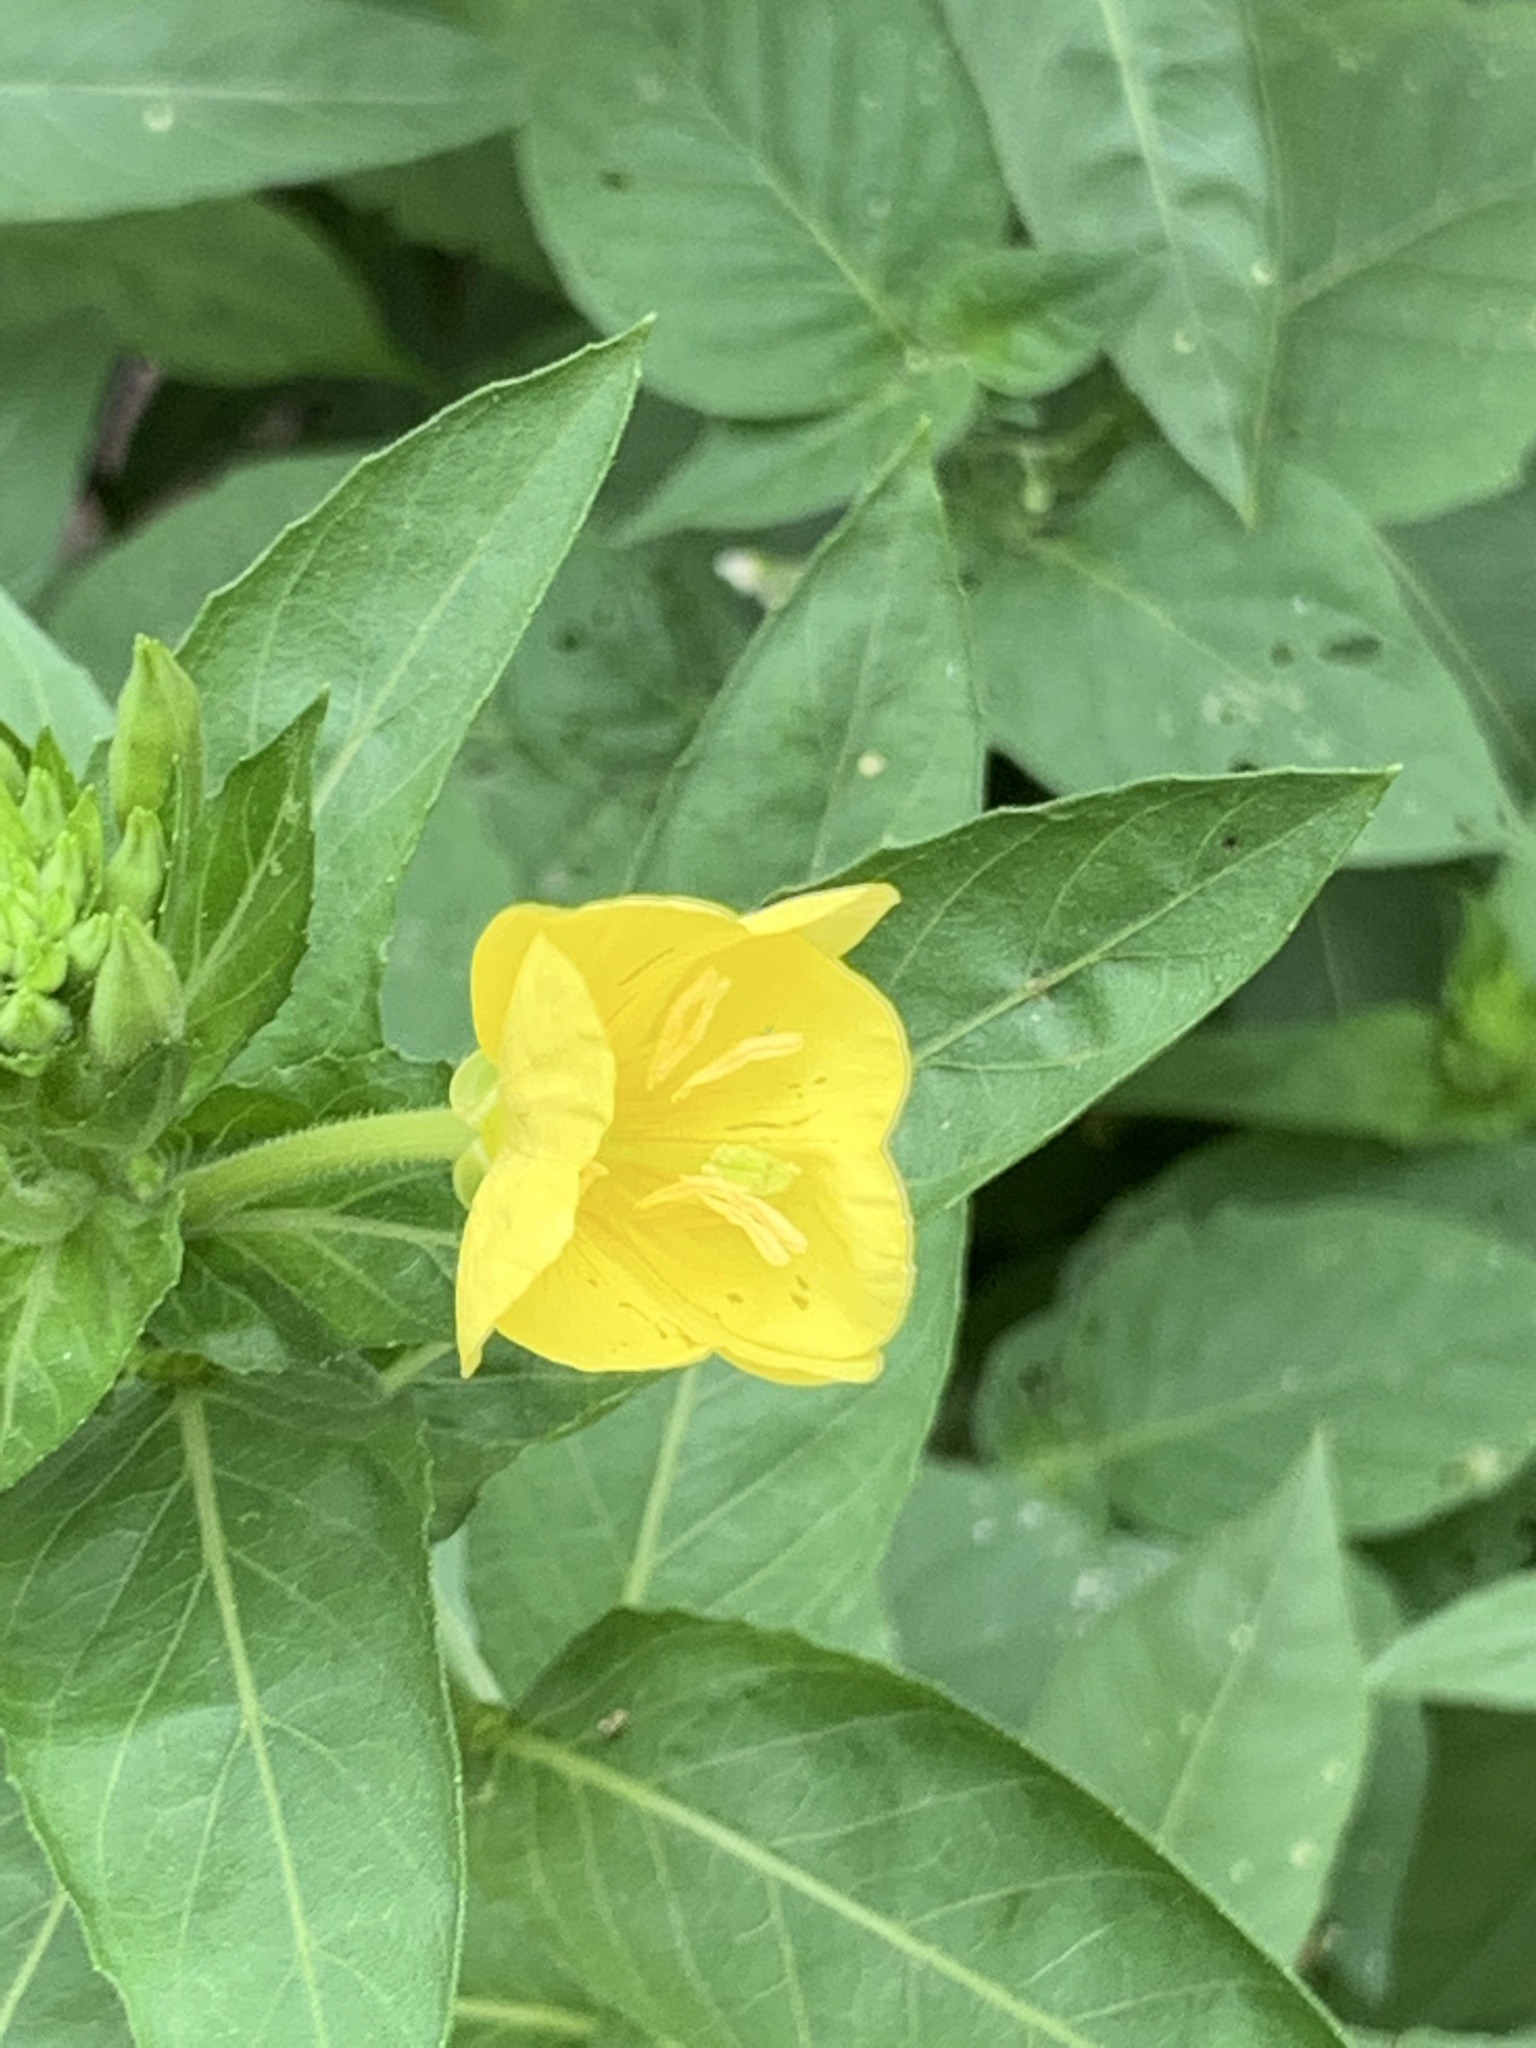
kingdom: Plantae
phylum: Tracheophyta
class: Magnoliopsida
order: Myrtales
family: Onagraceae
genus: Oenothera
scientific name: Oenothera biennis
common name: Common evening-primrose
